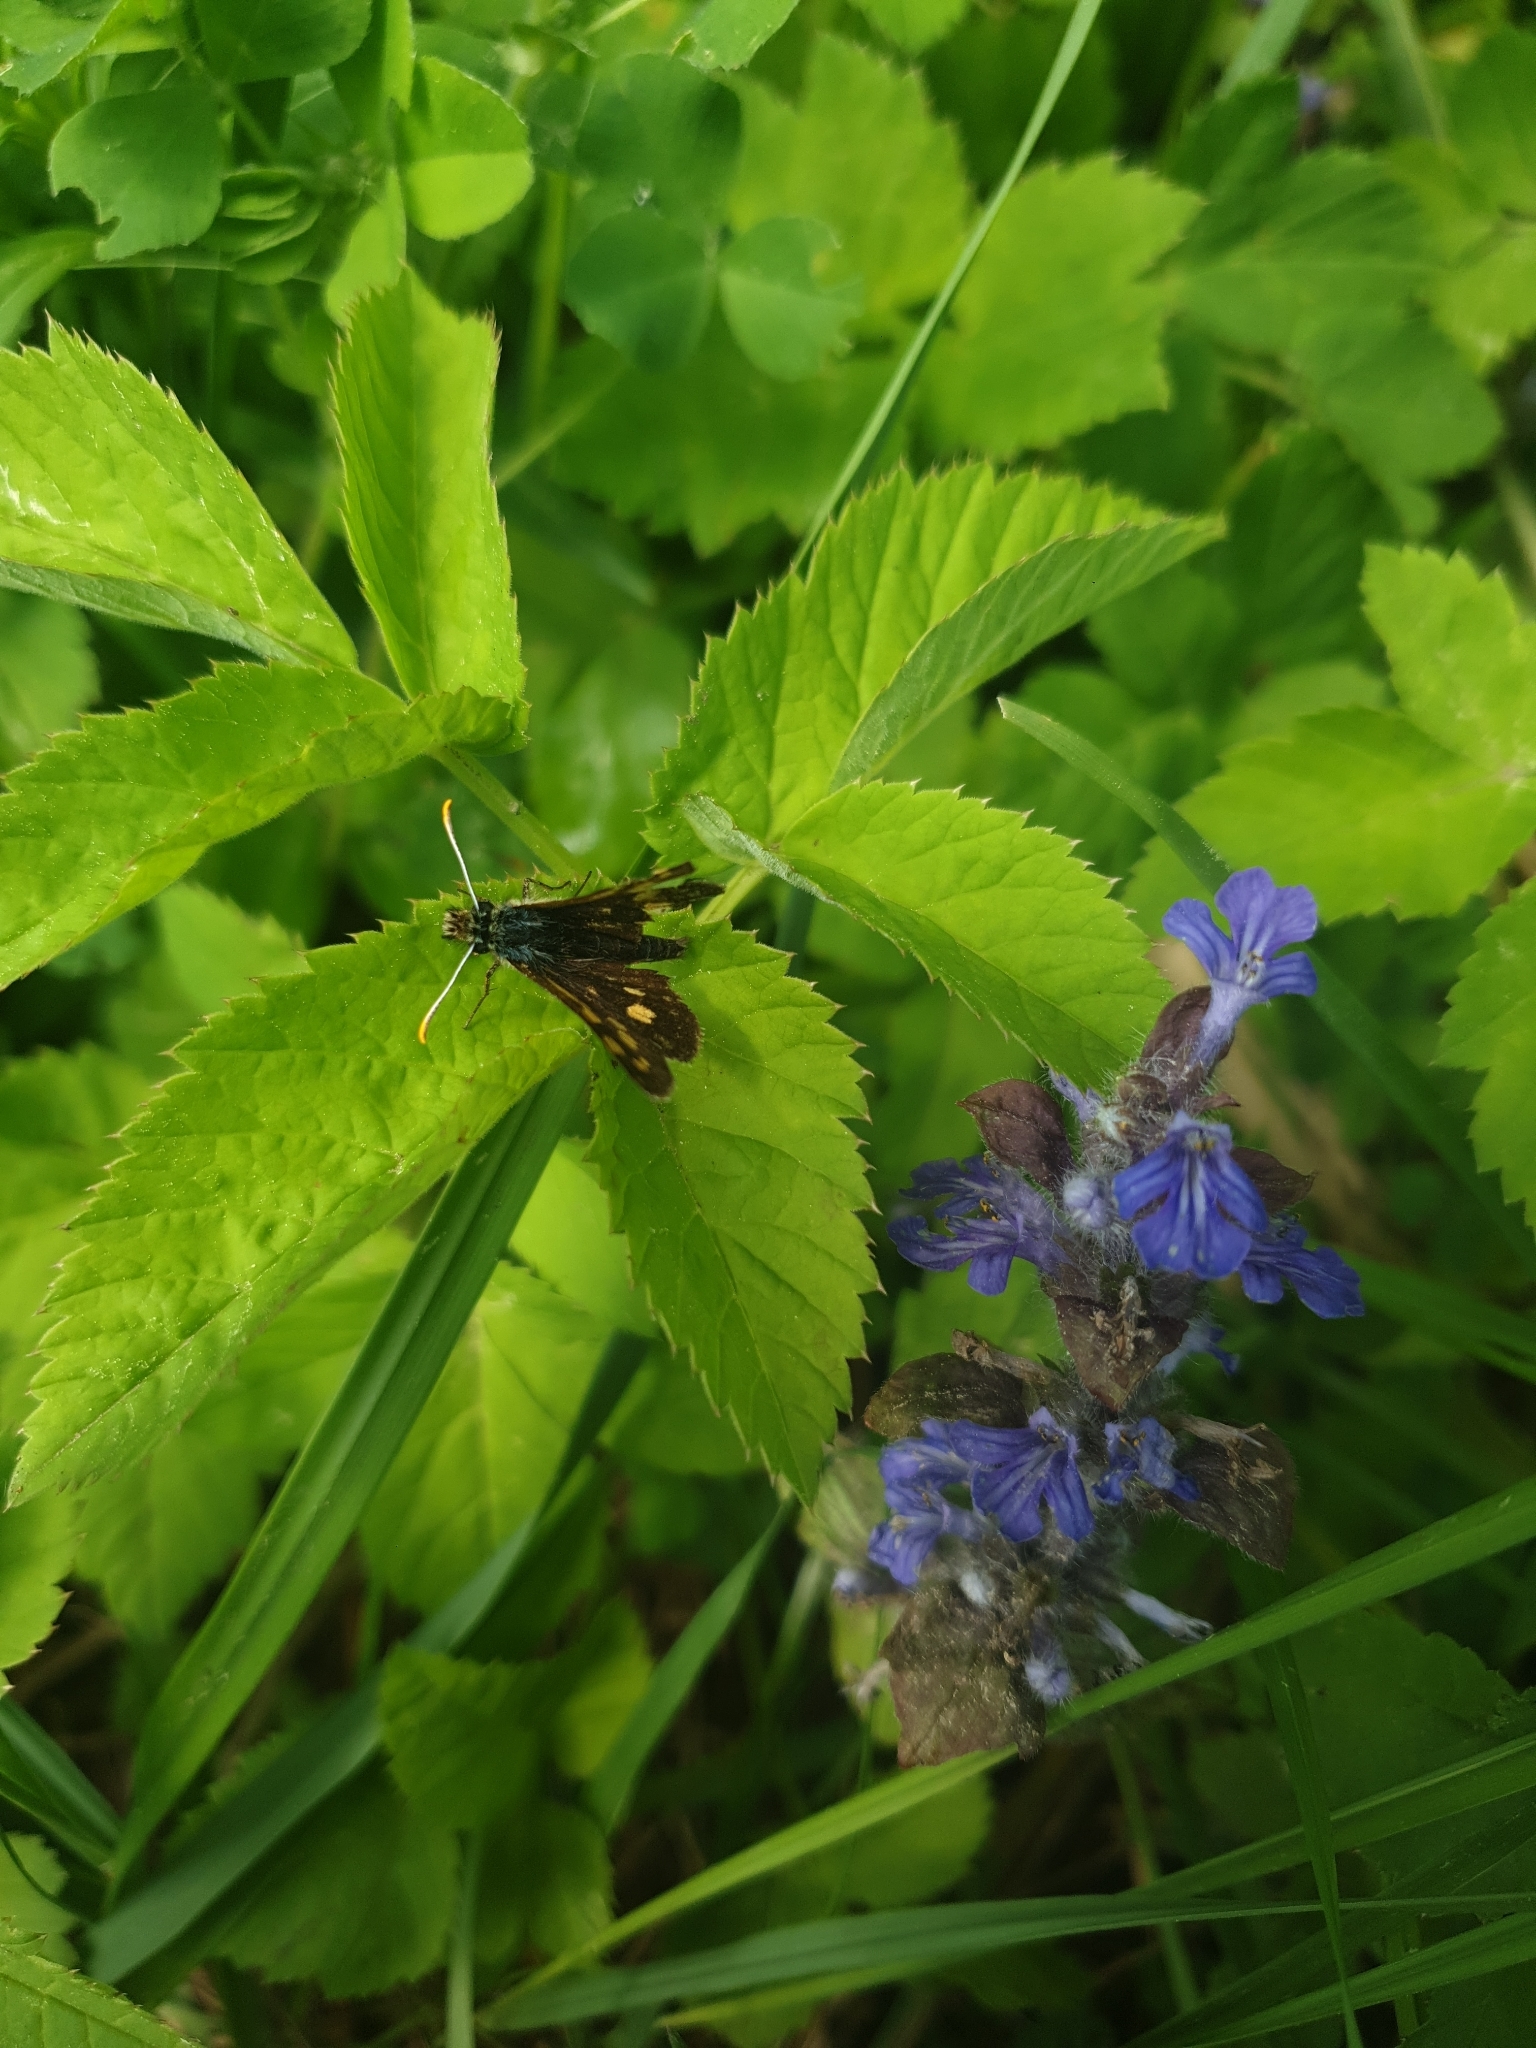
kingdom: Animalia
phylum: Arthropoda
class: Insecta
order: Lepidoptera
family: Hesperiidae
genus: Carterocephalus
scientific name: Carterocephalus palaemon
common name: Chequered skipper
